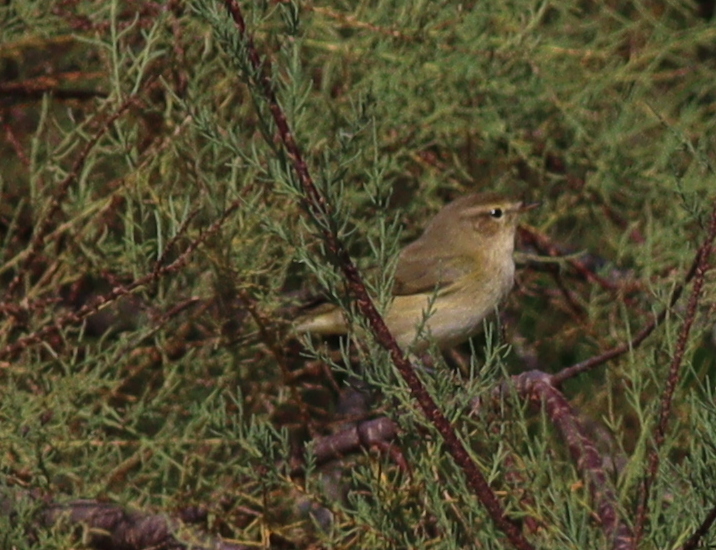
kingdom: Animalia
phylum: Chordata
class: Aves
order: Passeriformes
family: Phylloscopidae
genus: Phylloscopus
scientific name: Phylloscopus collybita
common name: Common chiffchaff
